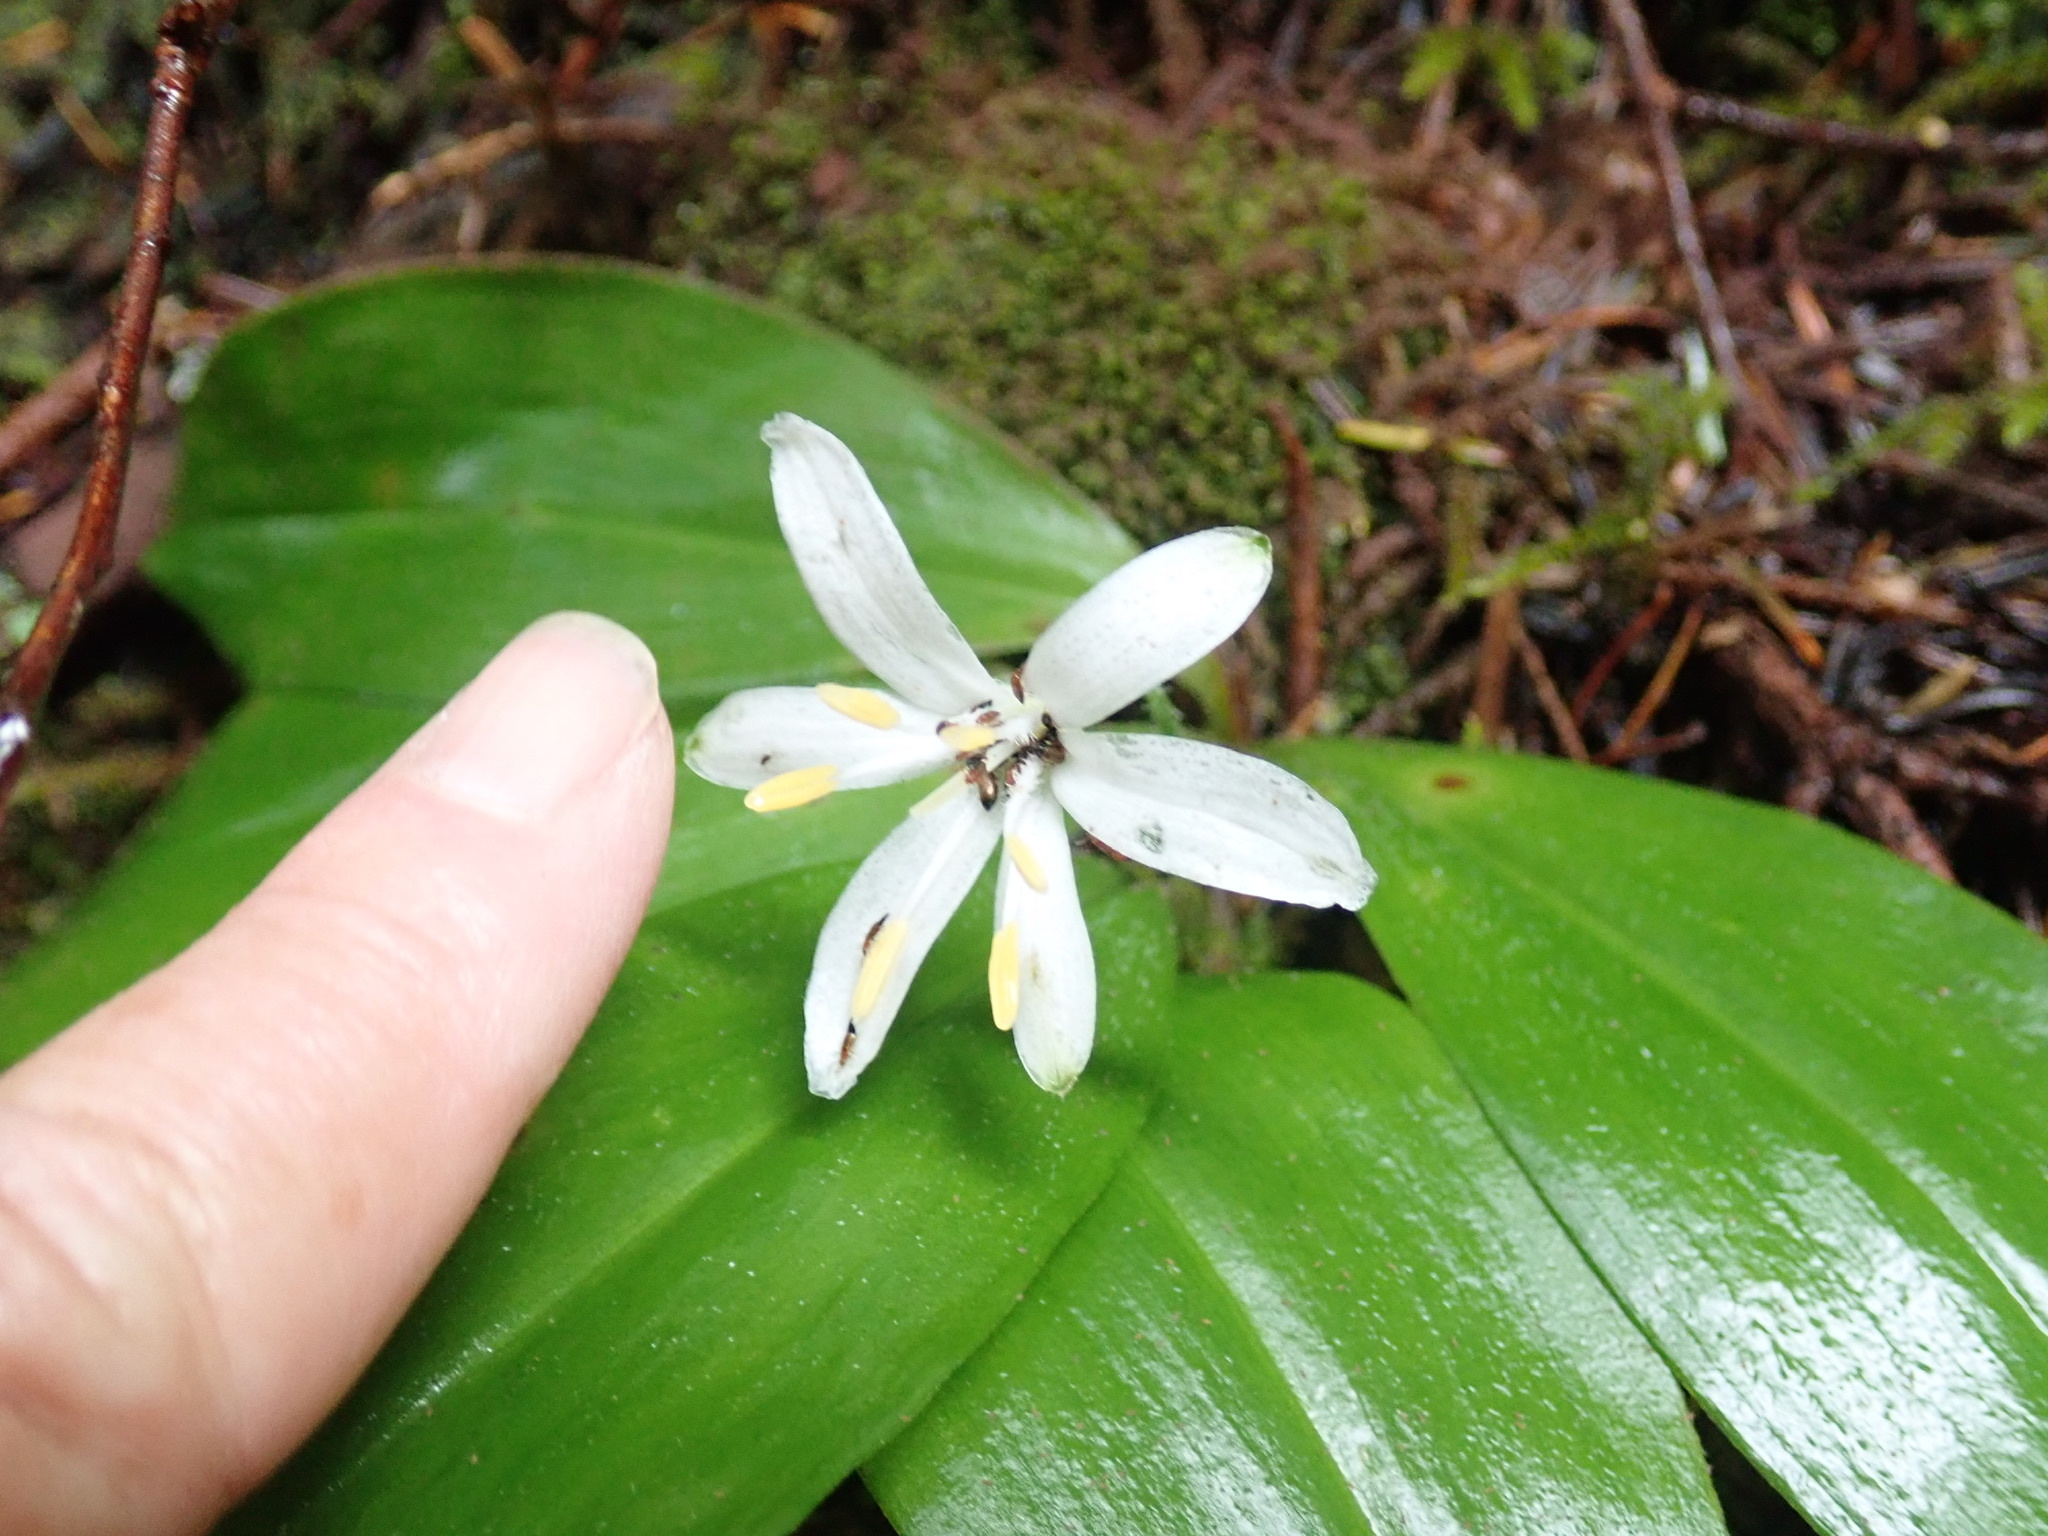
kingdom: Plantae
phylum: Tracheophyta
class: Liliopsida
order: Liliales
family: Liliaceae
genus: Clintonia
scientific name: Clintonia uniflora
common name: Queen's cup
